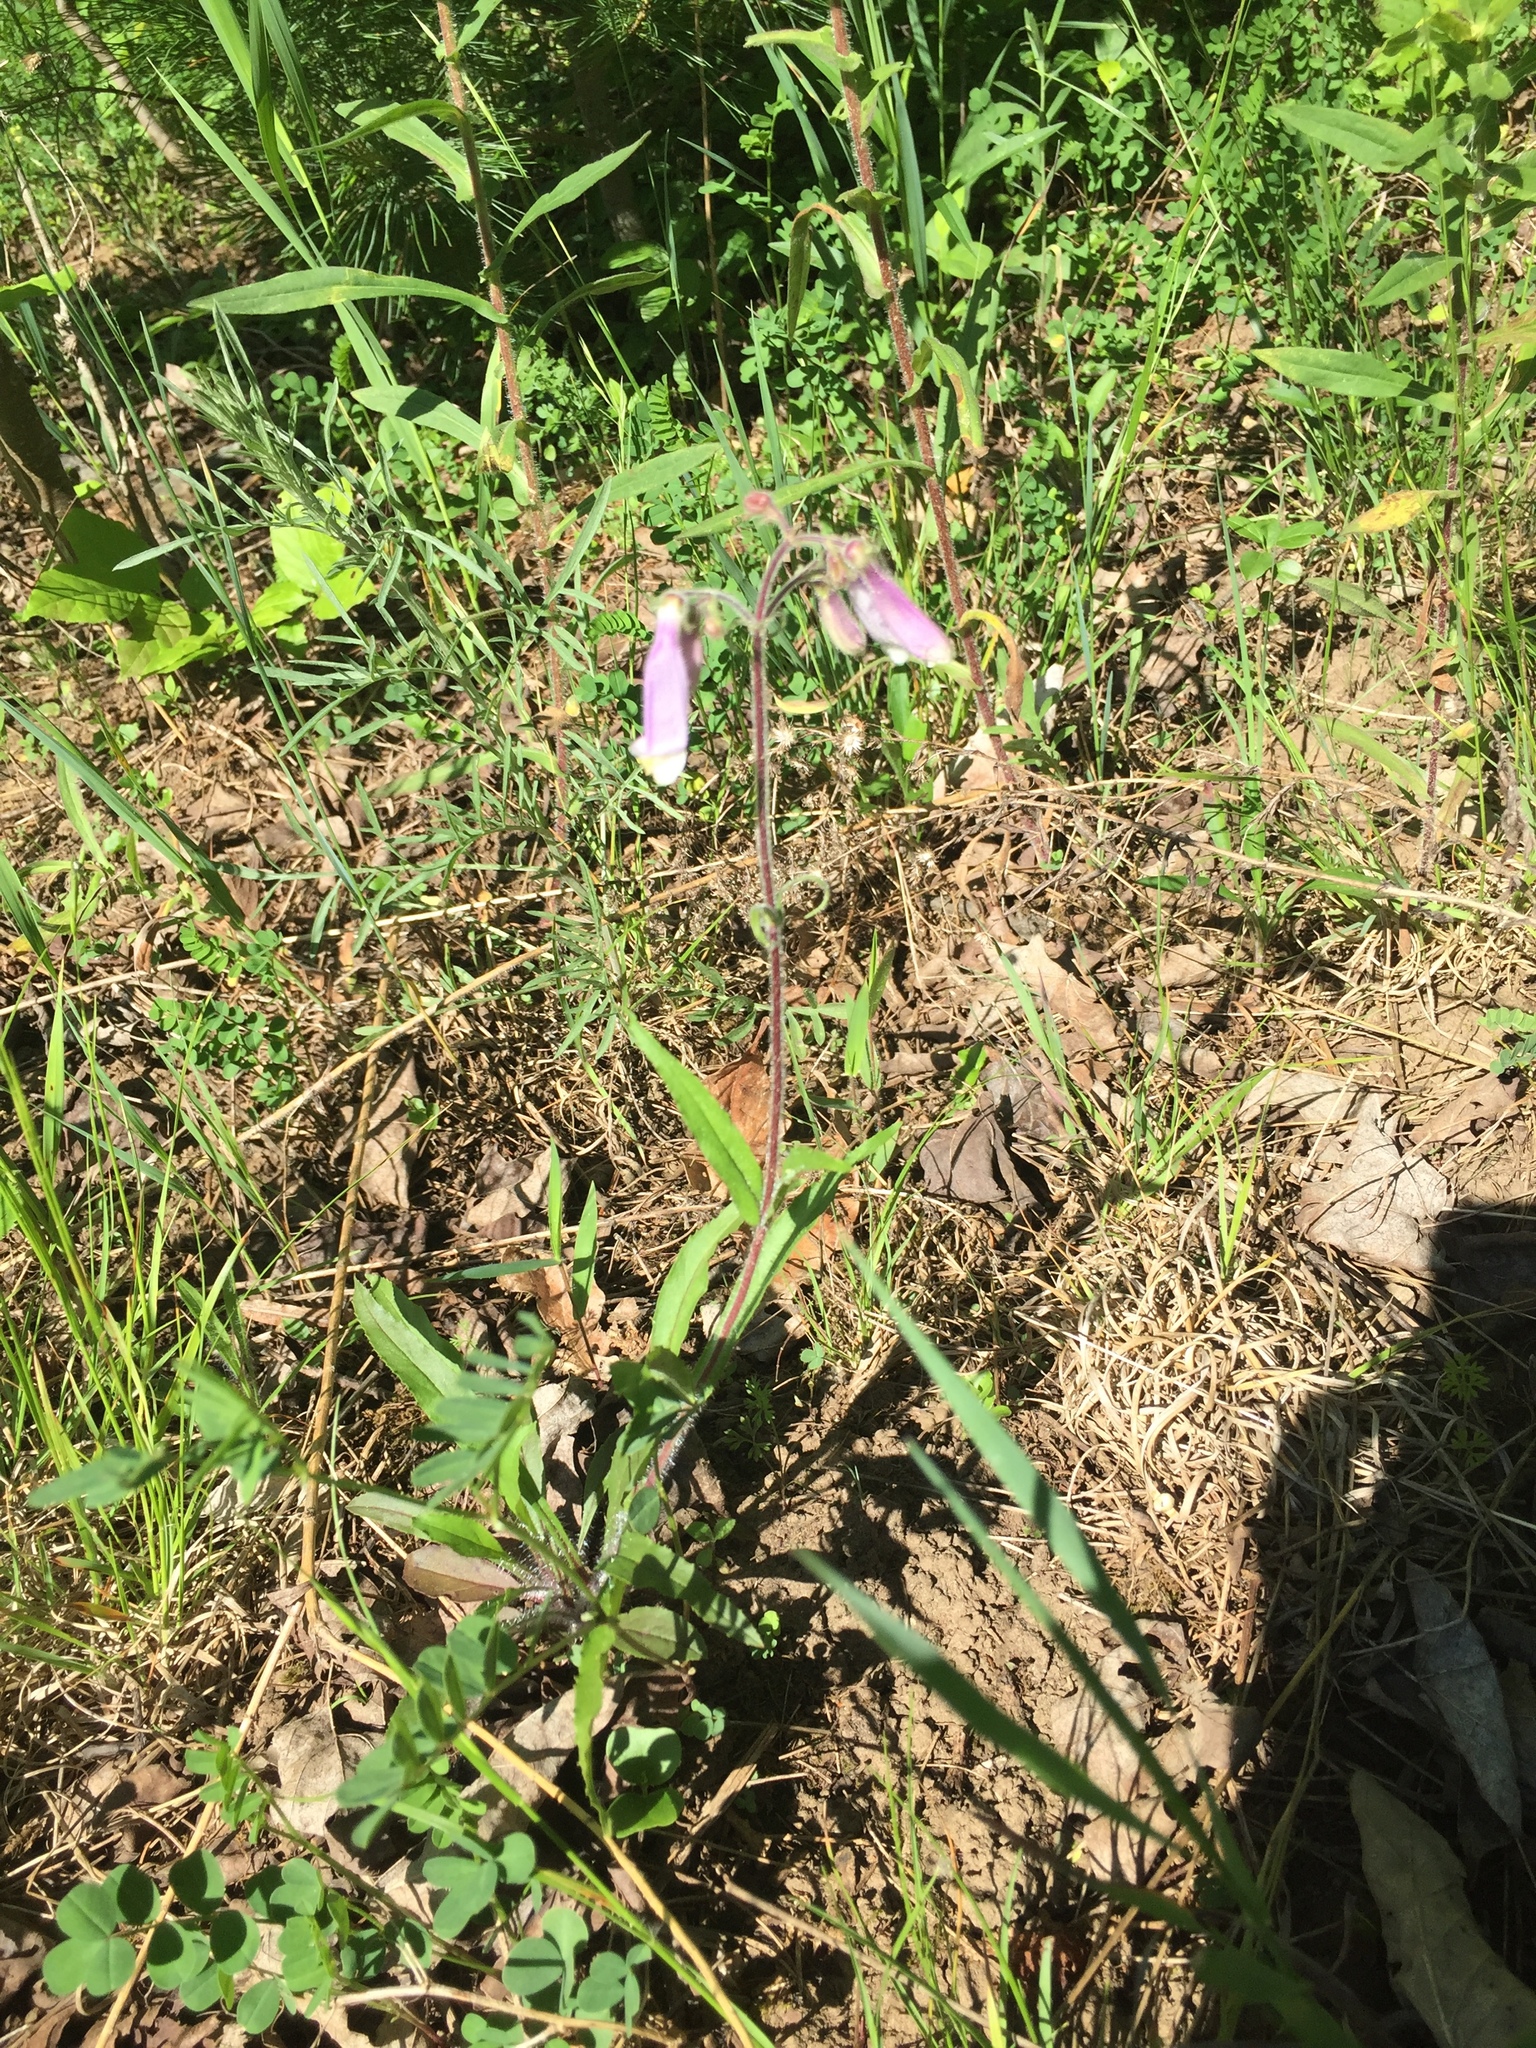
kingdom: Plantae
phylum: Tracheophyta
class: Magnoliopsida
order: Lamiales
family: Plantaginaceae
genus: Penstemon
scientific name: Penstemon hirsutus
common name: Hairy beardtongue
